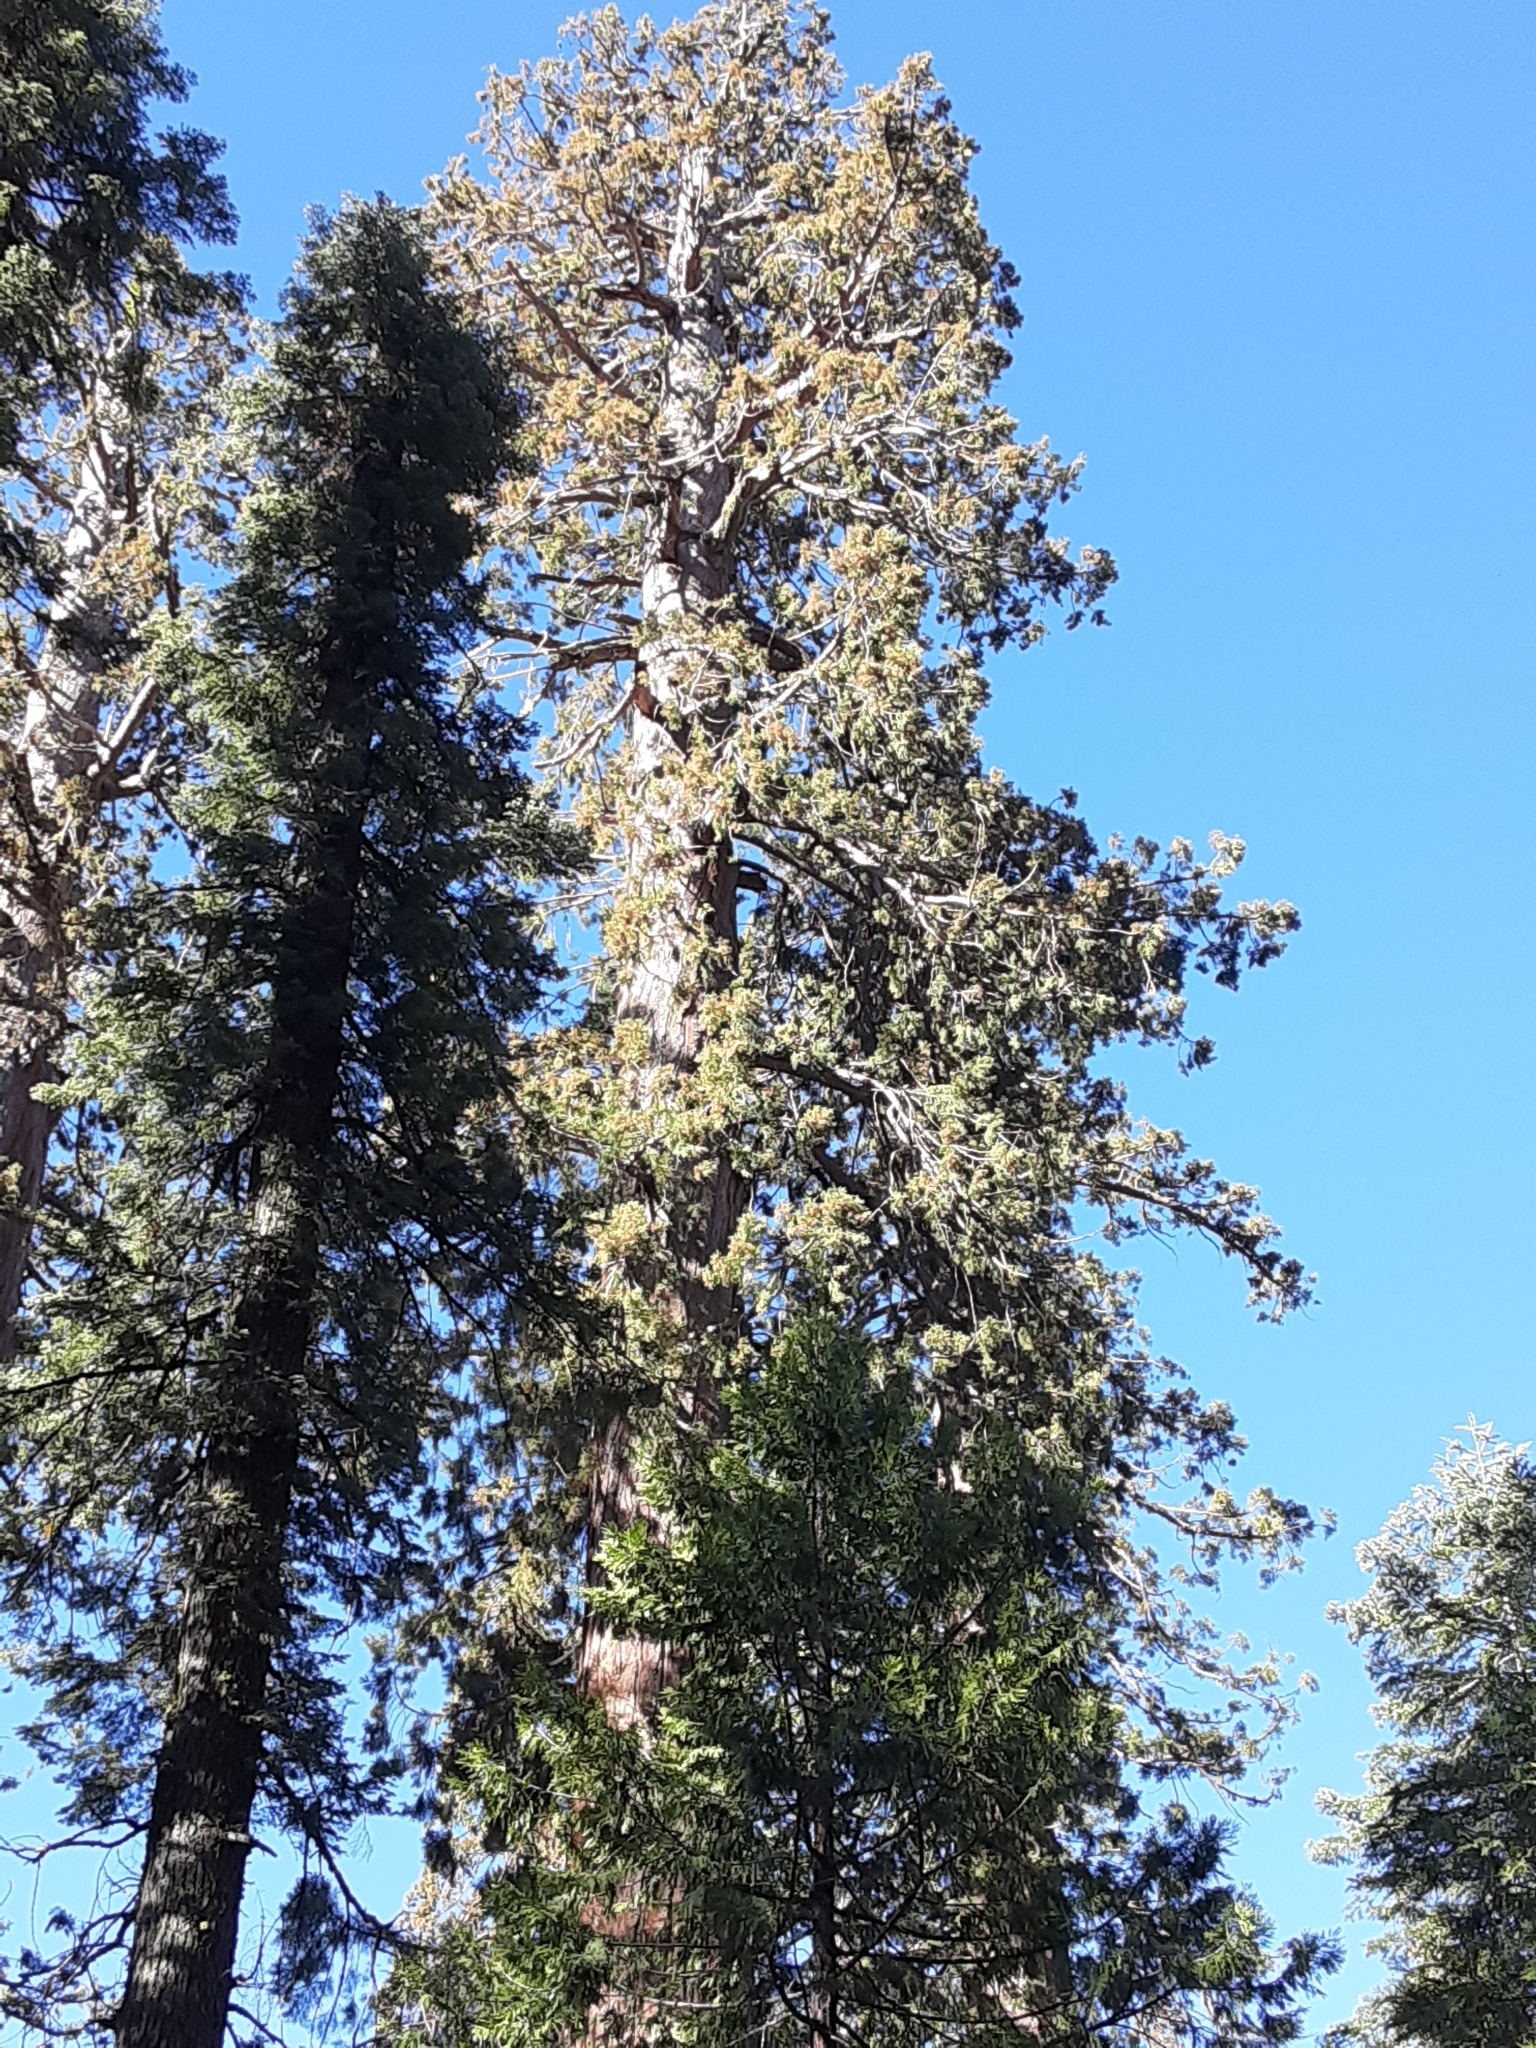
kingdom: Plantae
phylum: Tracheophyta
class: Pinopsida
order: Pinales
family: Cupressaceae
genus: Sequoiadendron
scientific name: Sequoiadendron giganteum
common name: Wellingtonia
